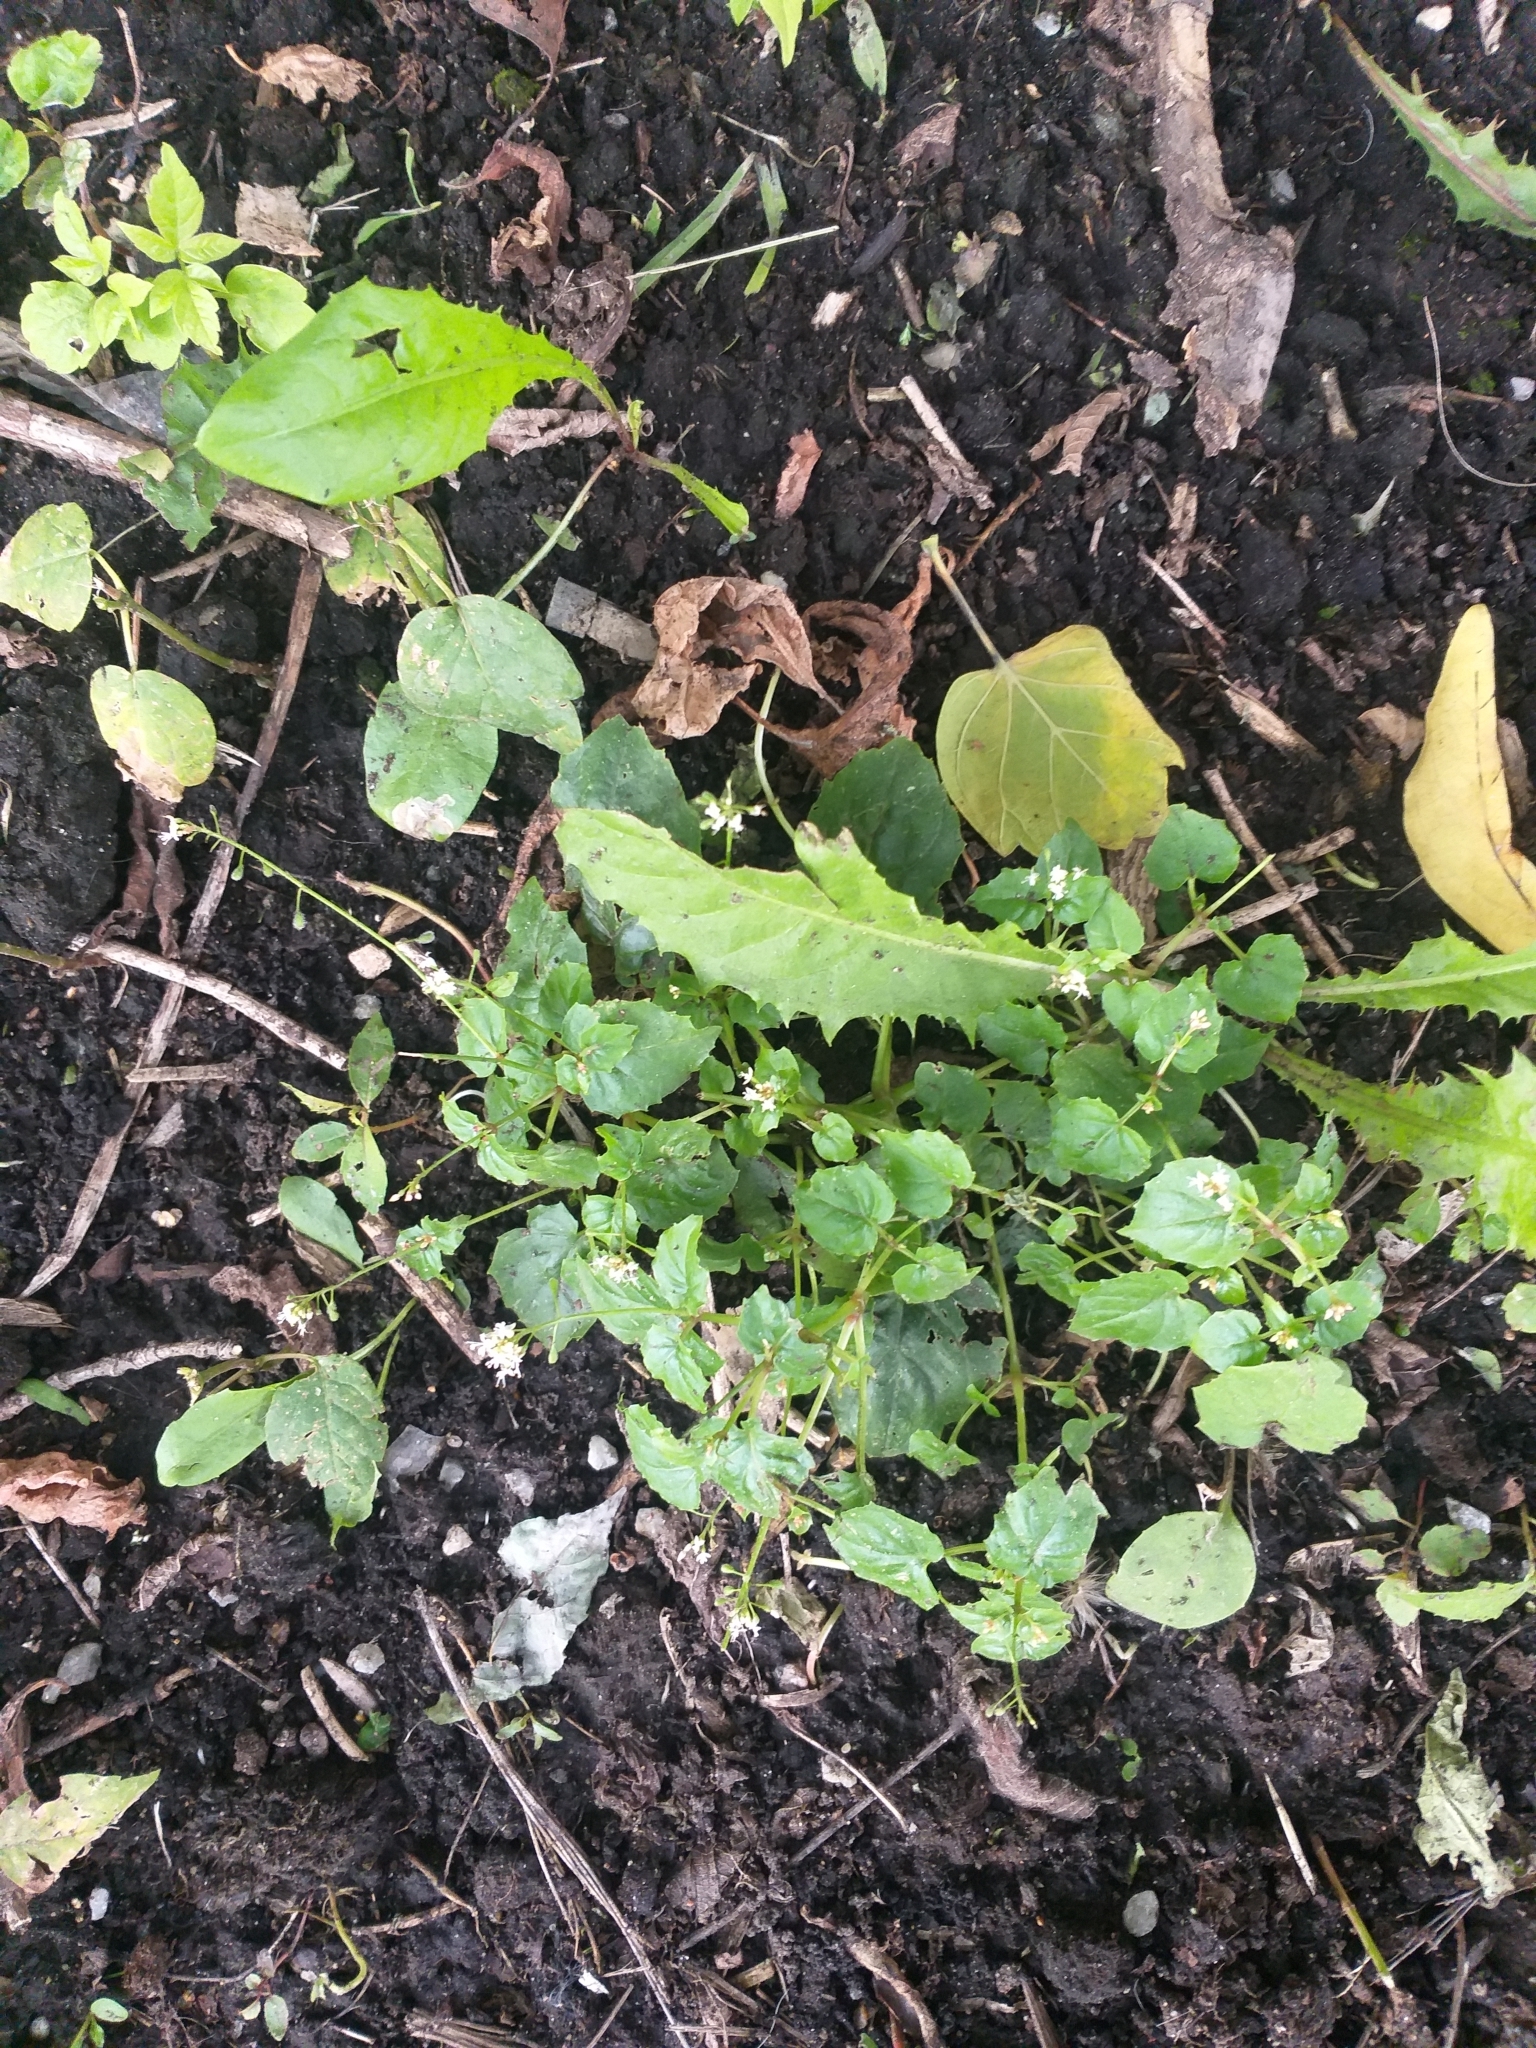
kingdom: Plantae
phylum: Tracheophyta
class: Magnoliopsida
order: Myrtales
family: Onagraceae
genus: Circaea
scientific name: Circaea alpina
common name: Alpine enchanter's-nightshade
